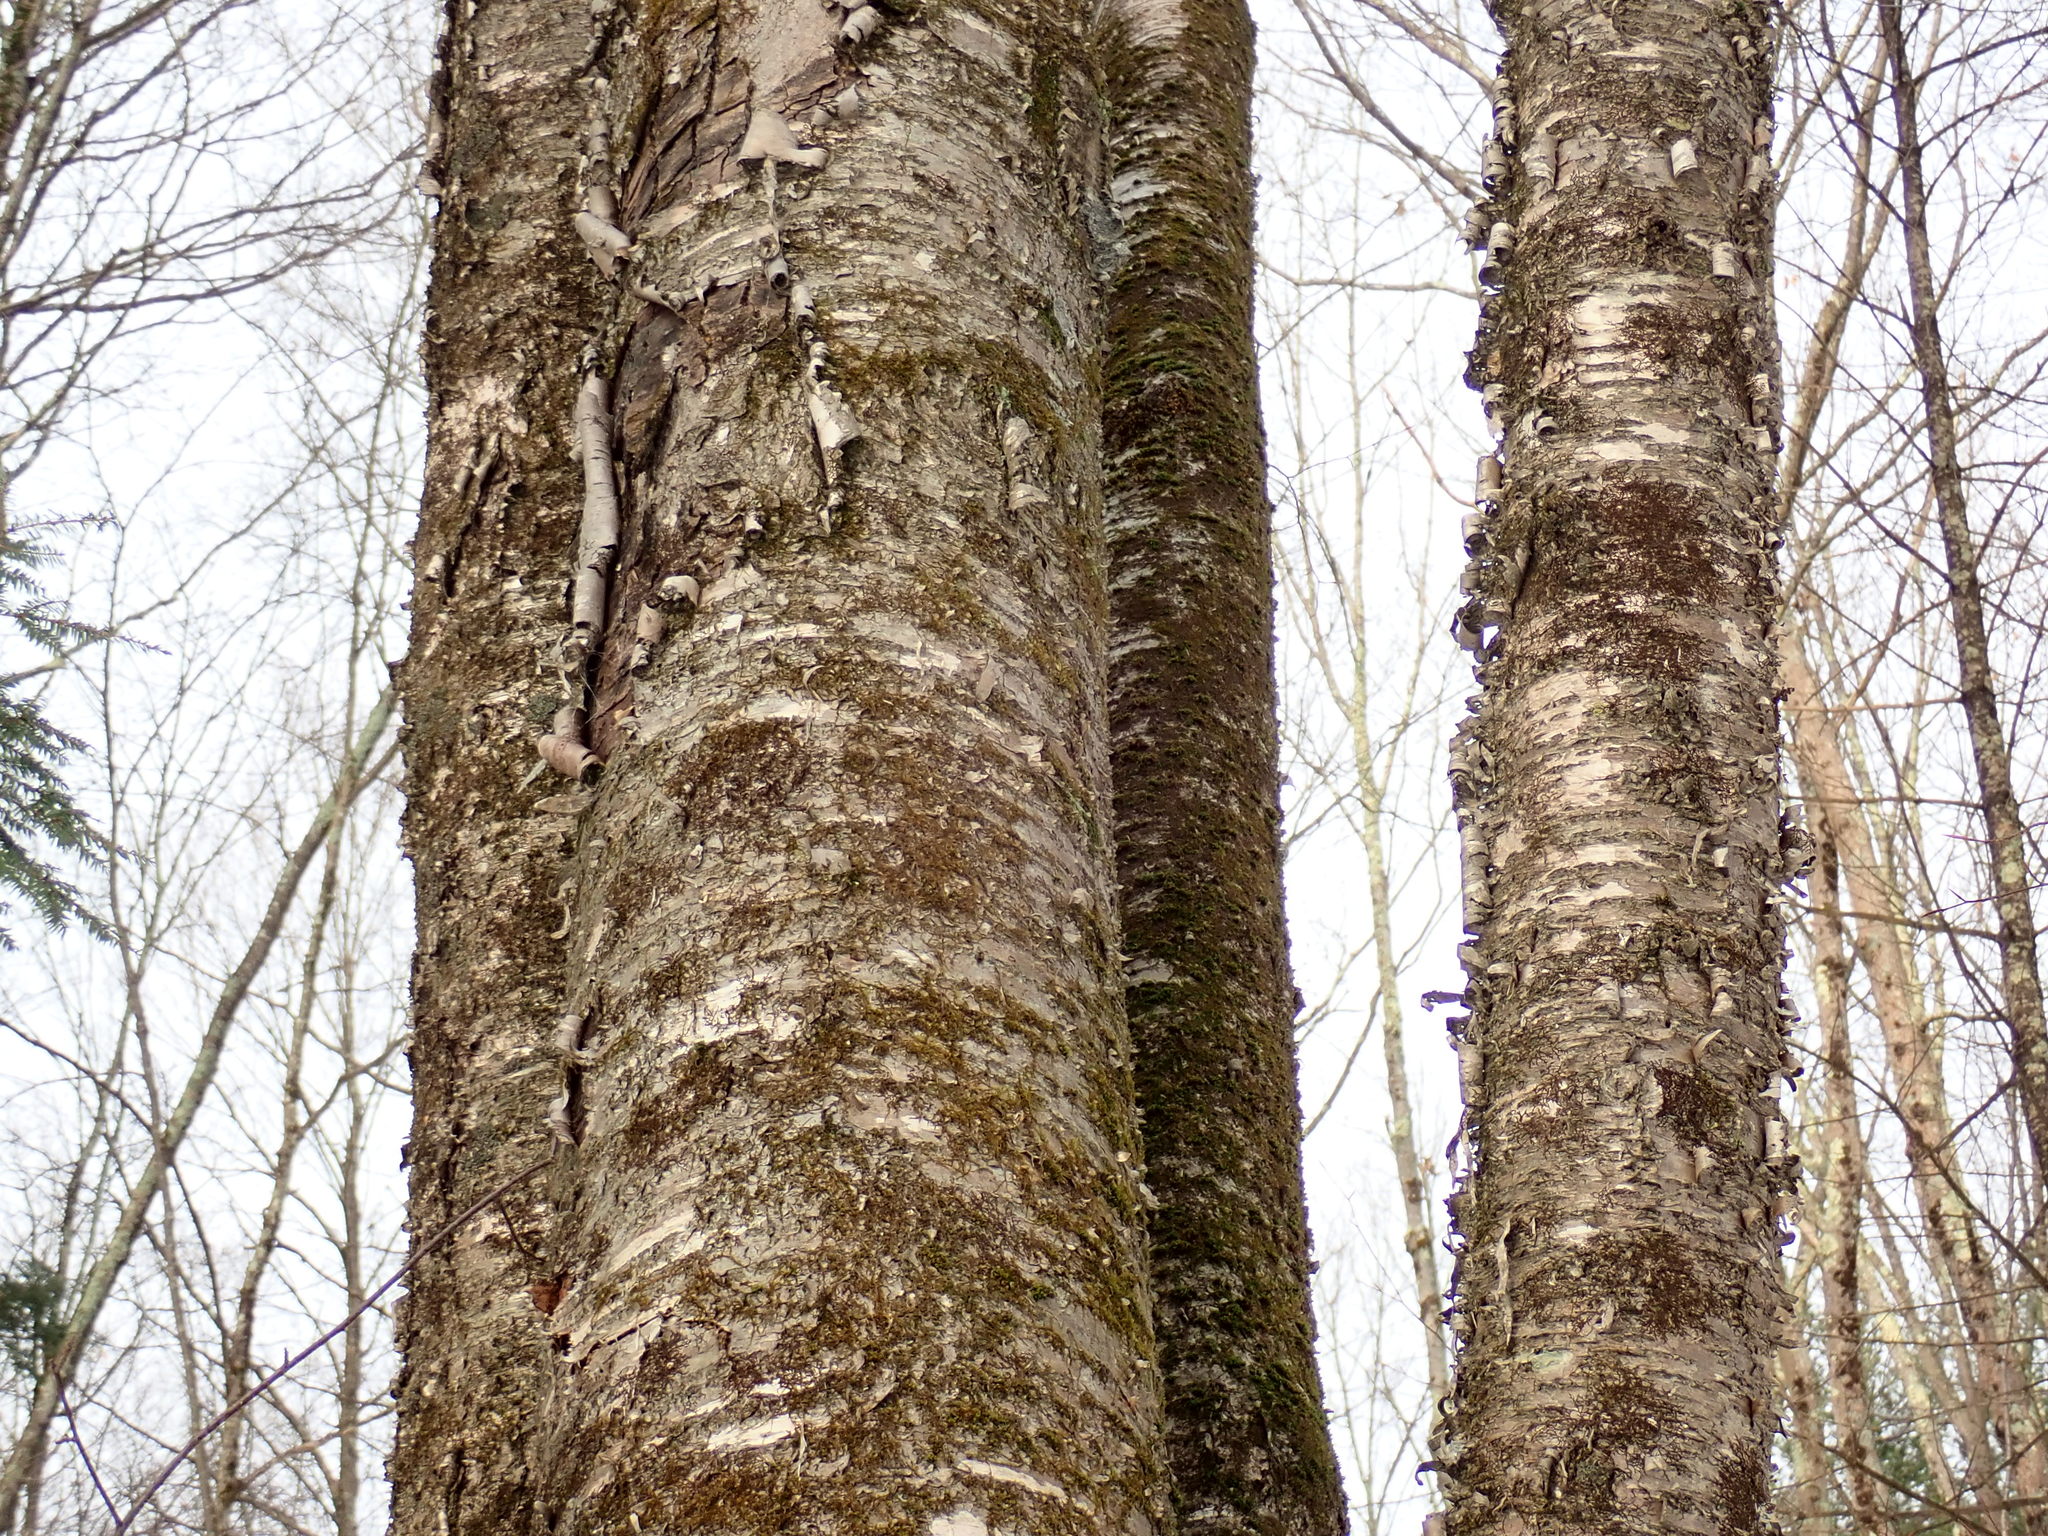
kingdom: Plantae
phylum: Tracheophyta
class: Magnoliopsida
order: Fagales
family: Betulaceae
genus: Betula
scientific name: Betula alleghaniensis
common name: Yellow birch
